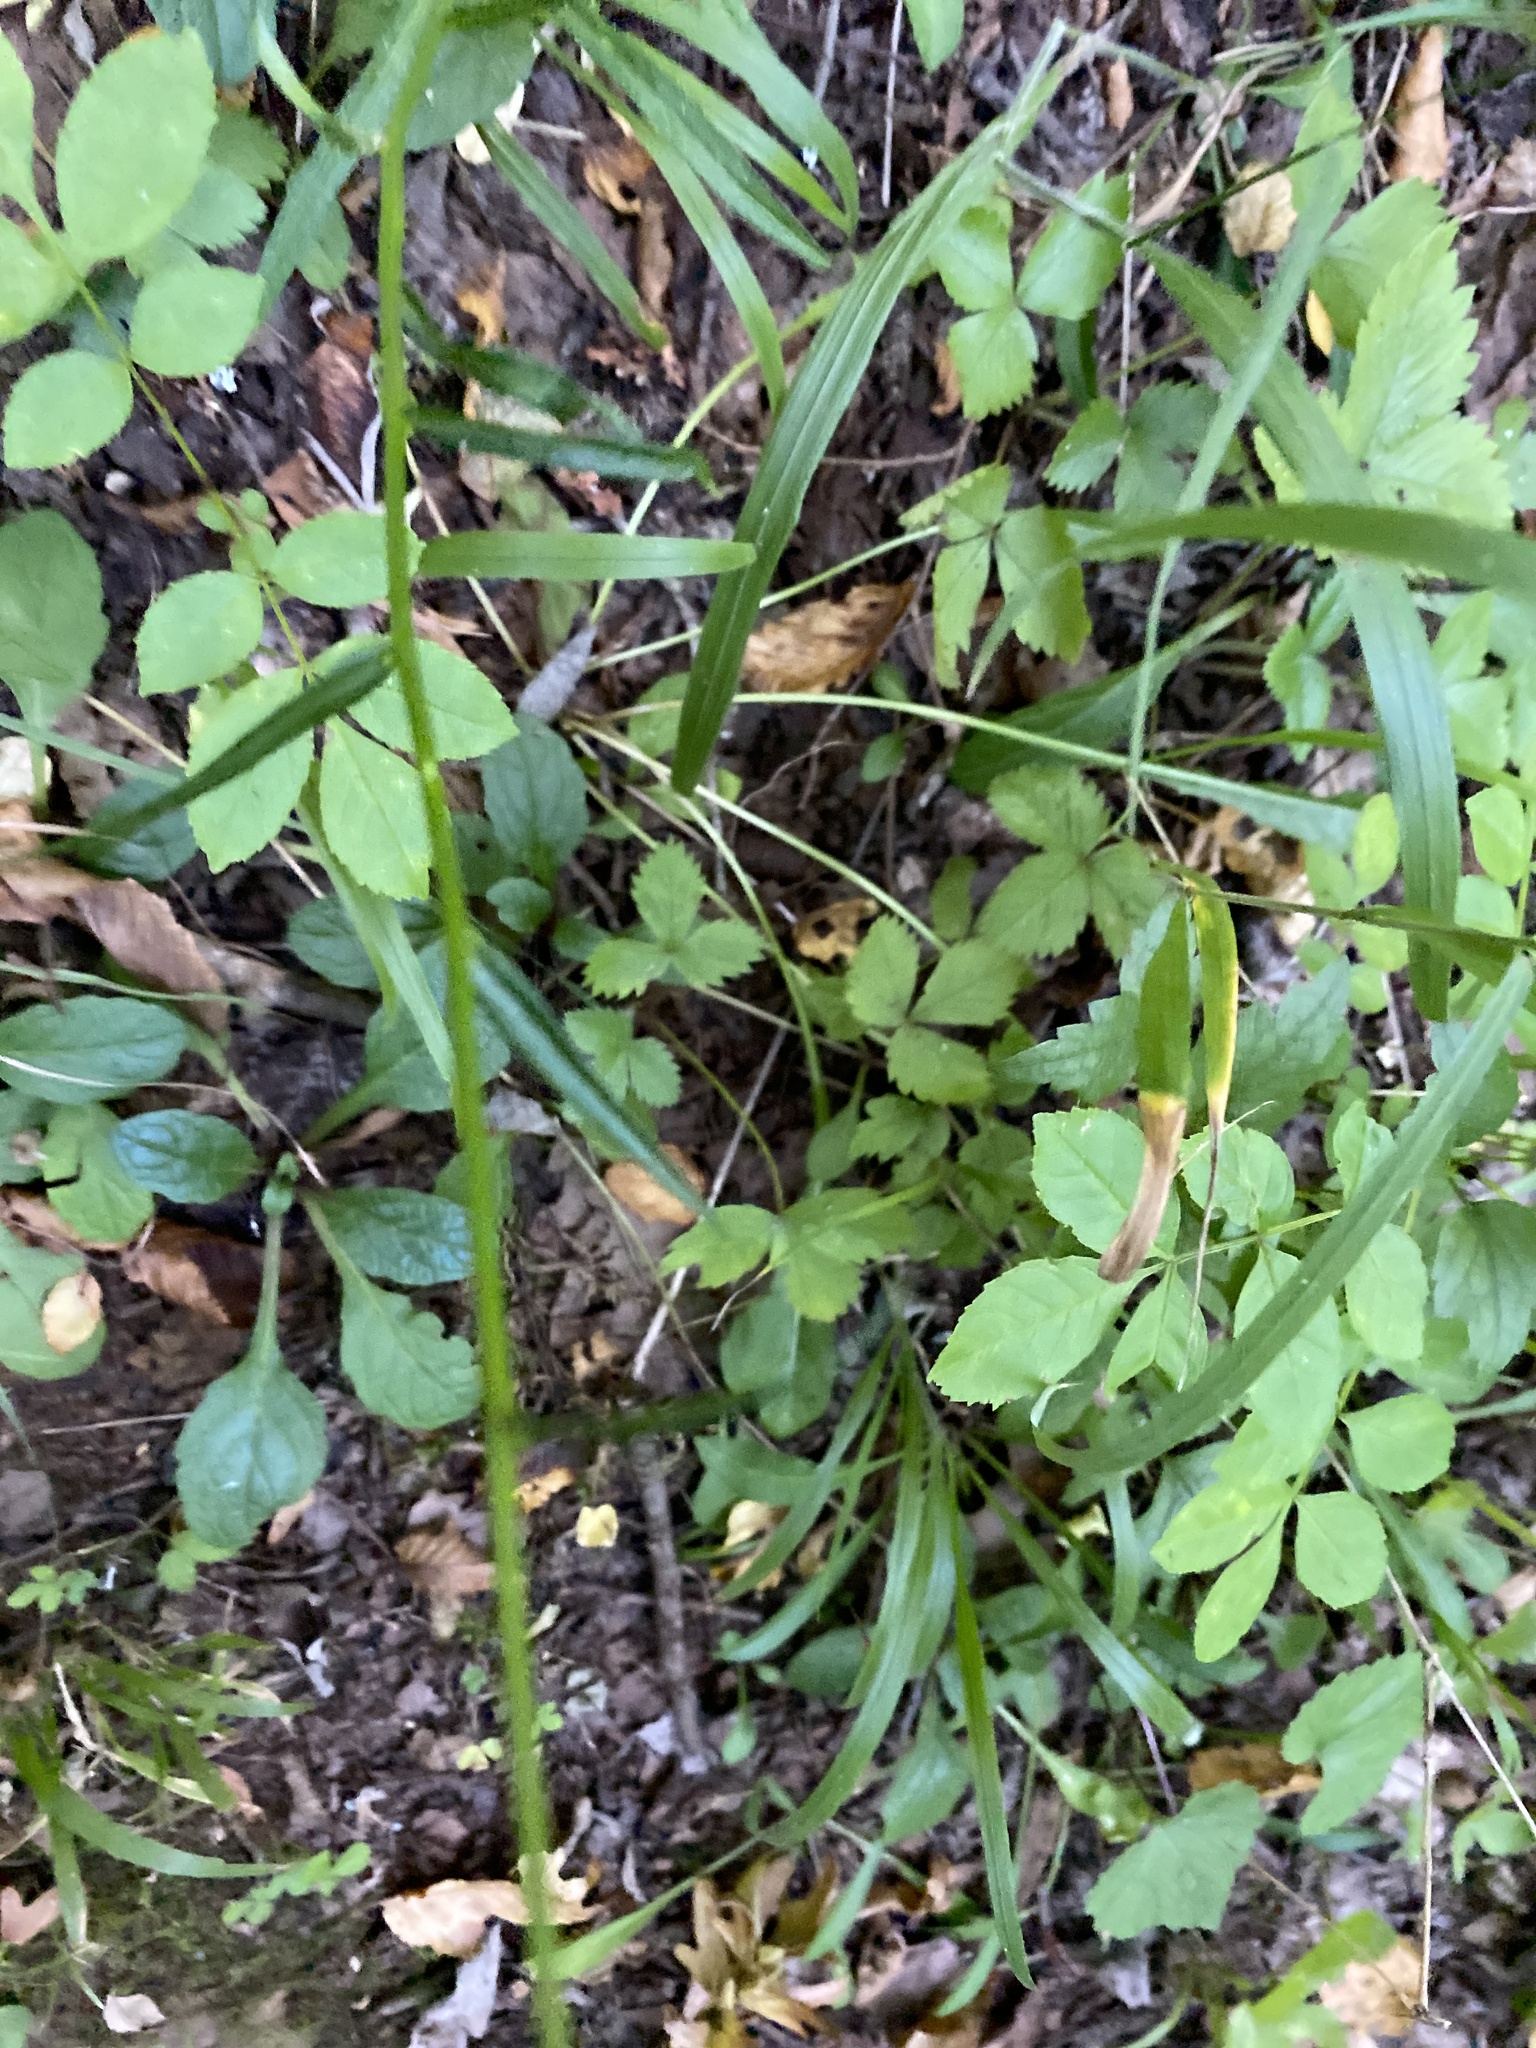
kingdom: Plantae
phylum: Tracheophyta
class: Magnoliopsida
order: Asterales
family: Campanulaceae
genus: Campanula
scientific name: Campanula persicifolia
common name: Peach-leaved bellflower
